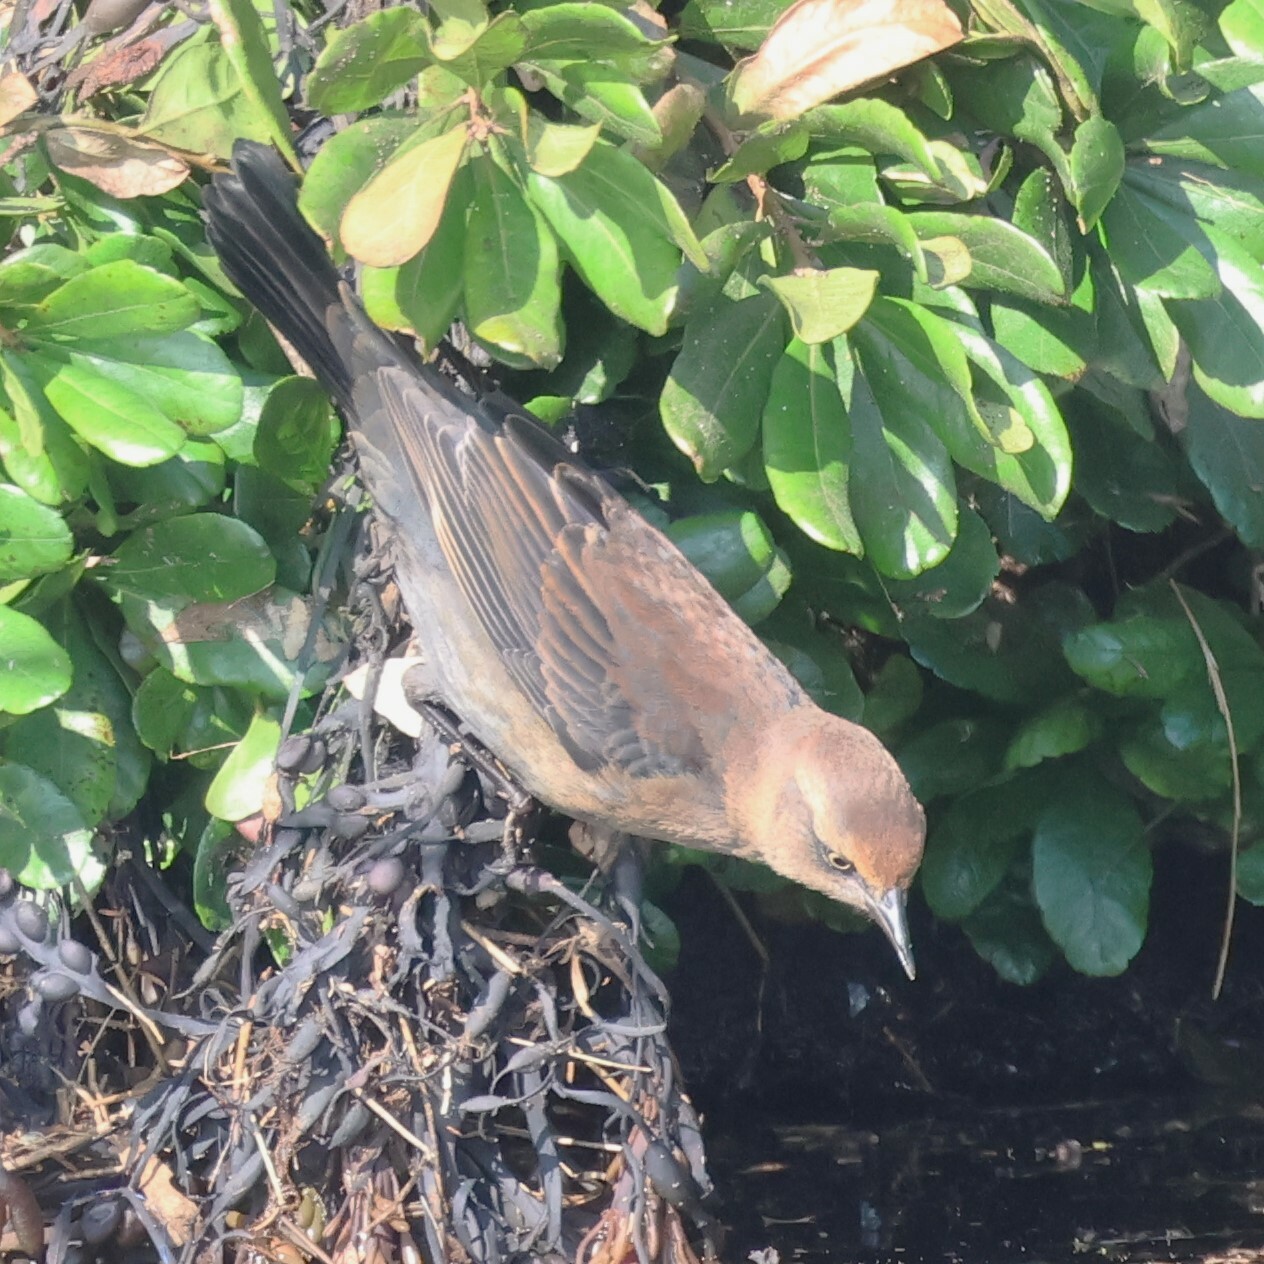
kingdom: Animalia
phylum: Chordata
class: Aves
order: Passeriformes
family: Icteridae
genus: Euphagus
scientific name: Euphagus carolinus
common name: Rusty blackbird
